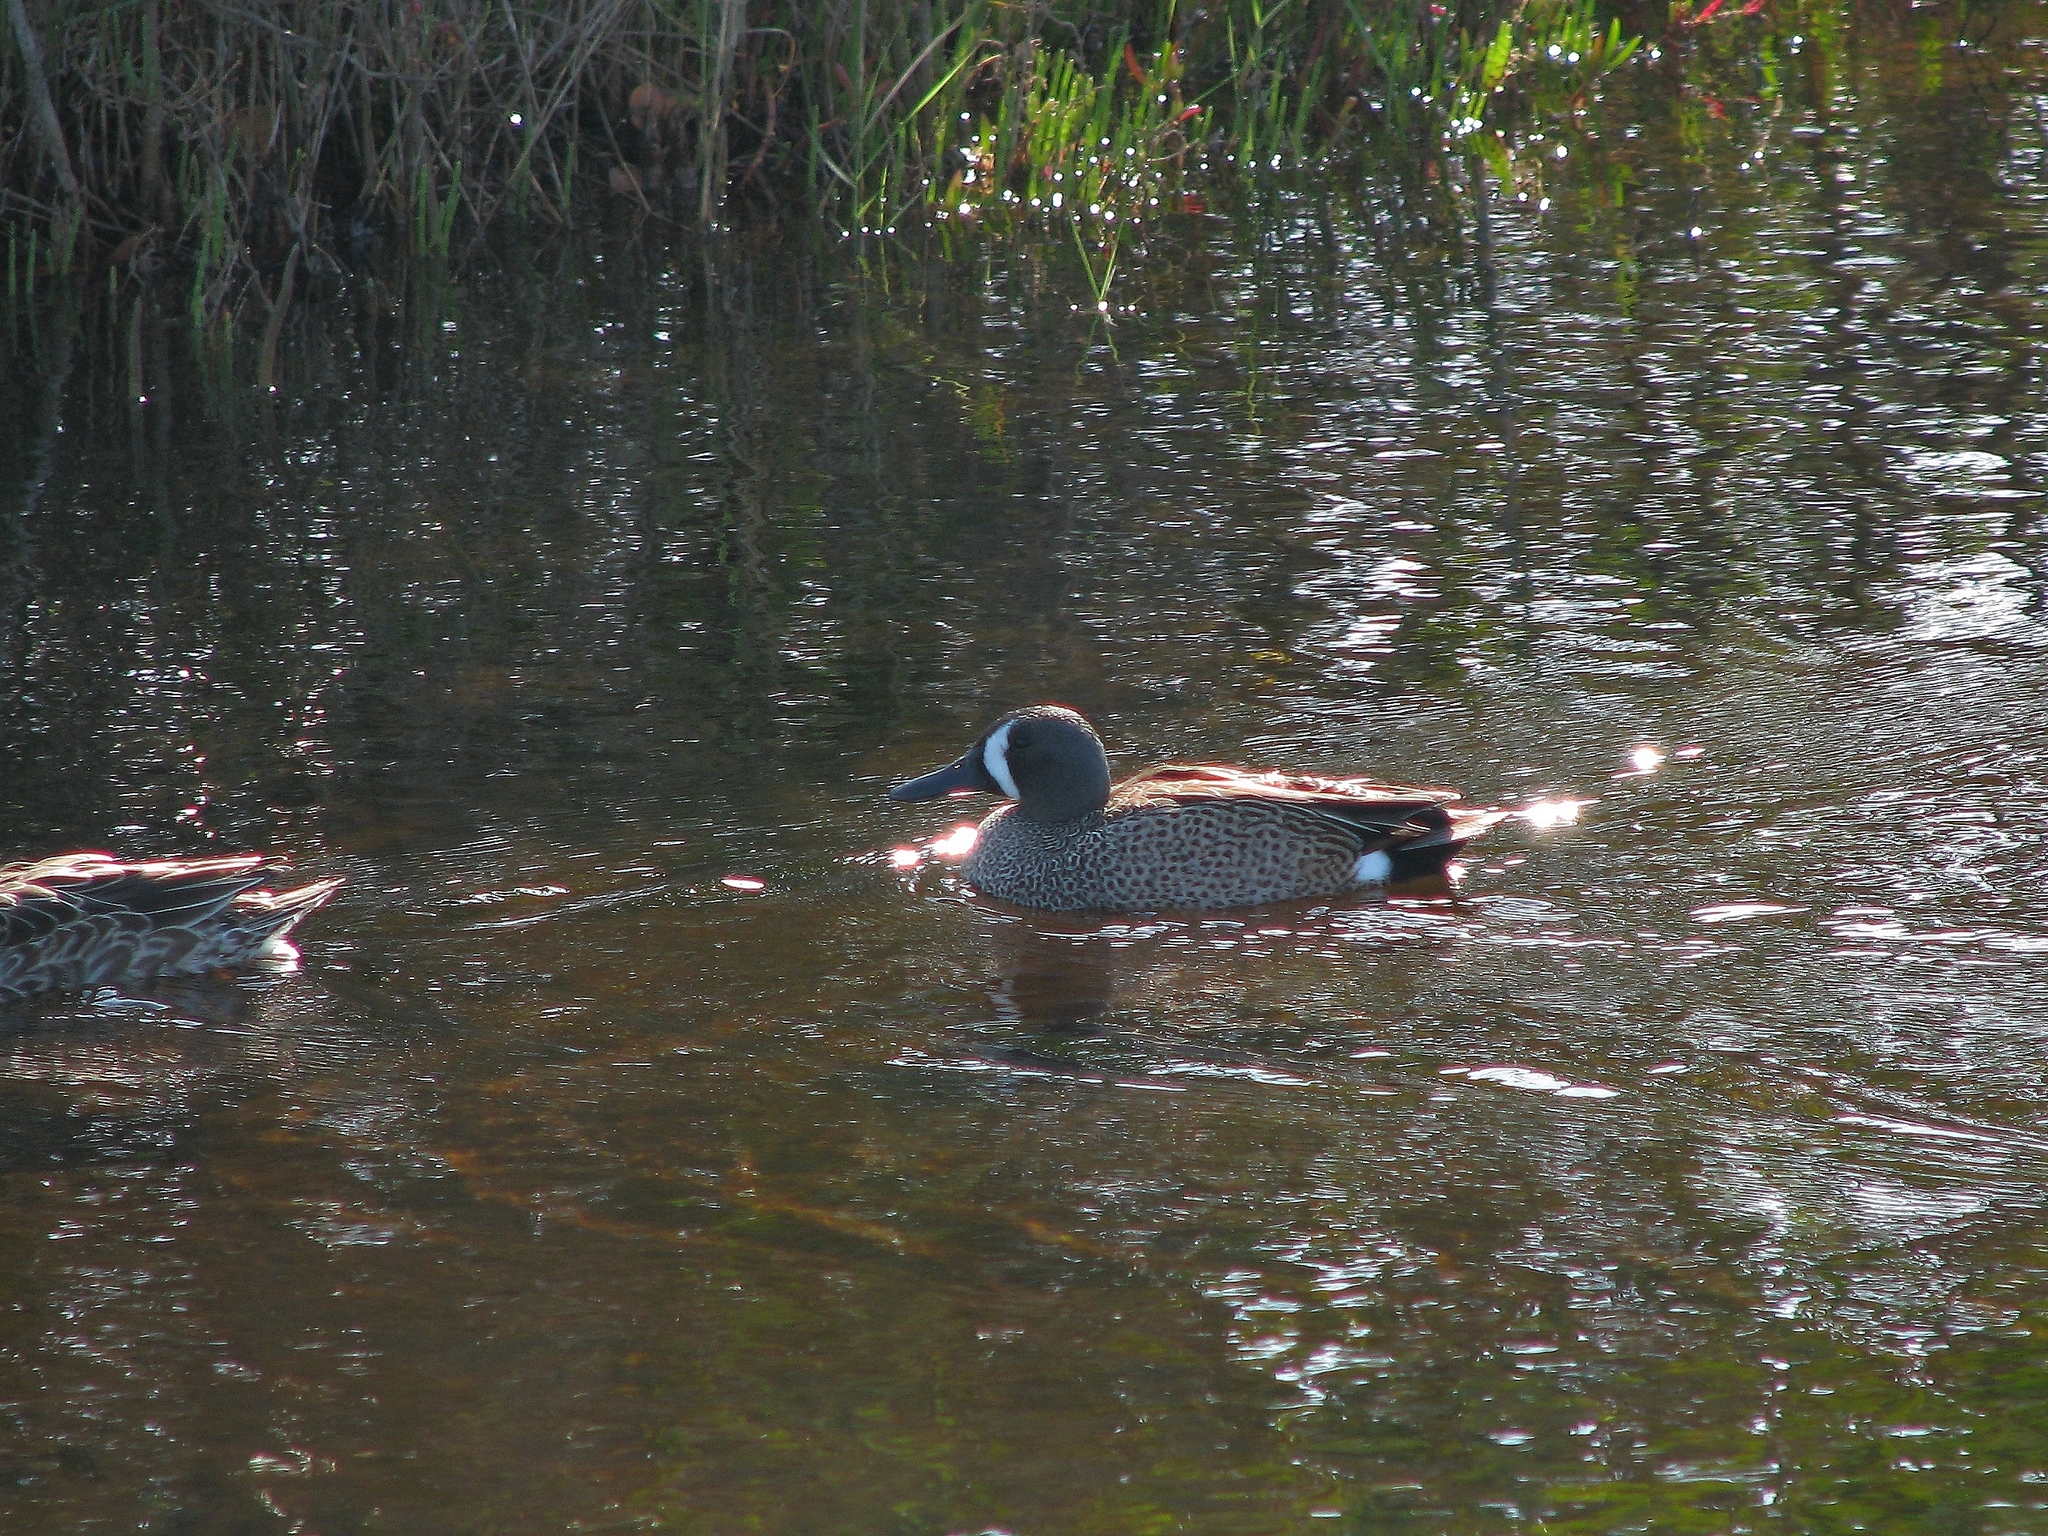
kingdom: Animalia
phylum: Chordata
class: Aves
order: Anseriformes
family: Anatidae
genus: Spatula
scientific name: Spatula discors
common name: Blue-winged teal
